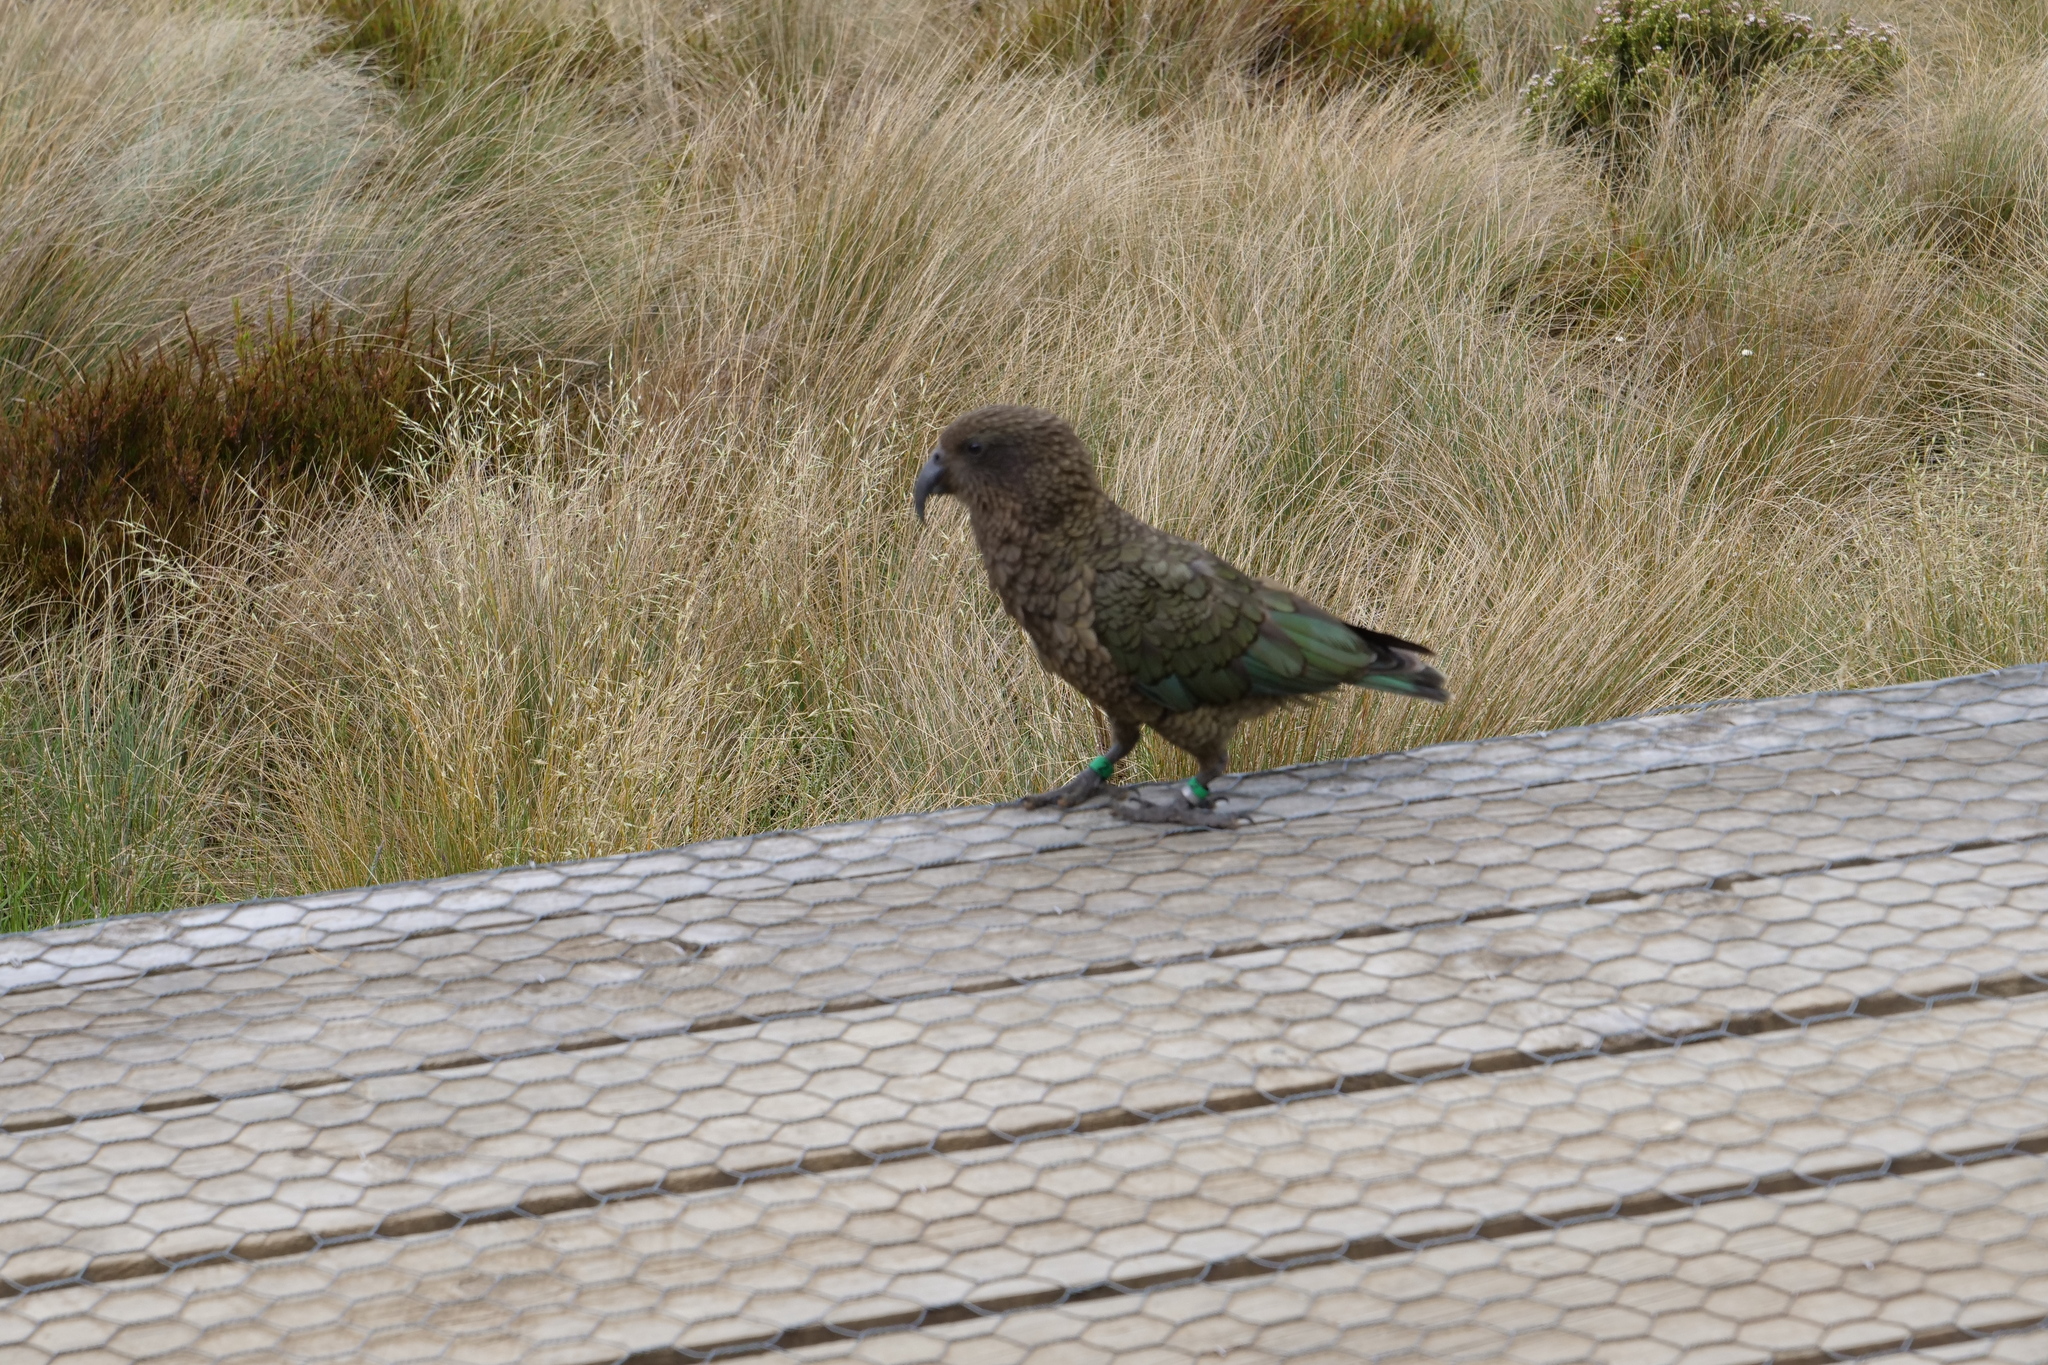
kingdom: Animalia
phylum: Chordata
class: Aves
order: Psittaciformes
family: Psittacidae
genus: Nestor
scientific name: Nestor notabilis
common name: Kea
